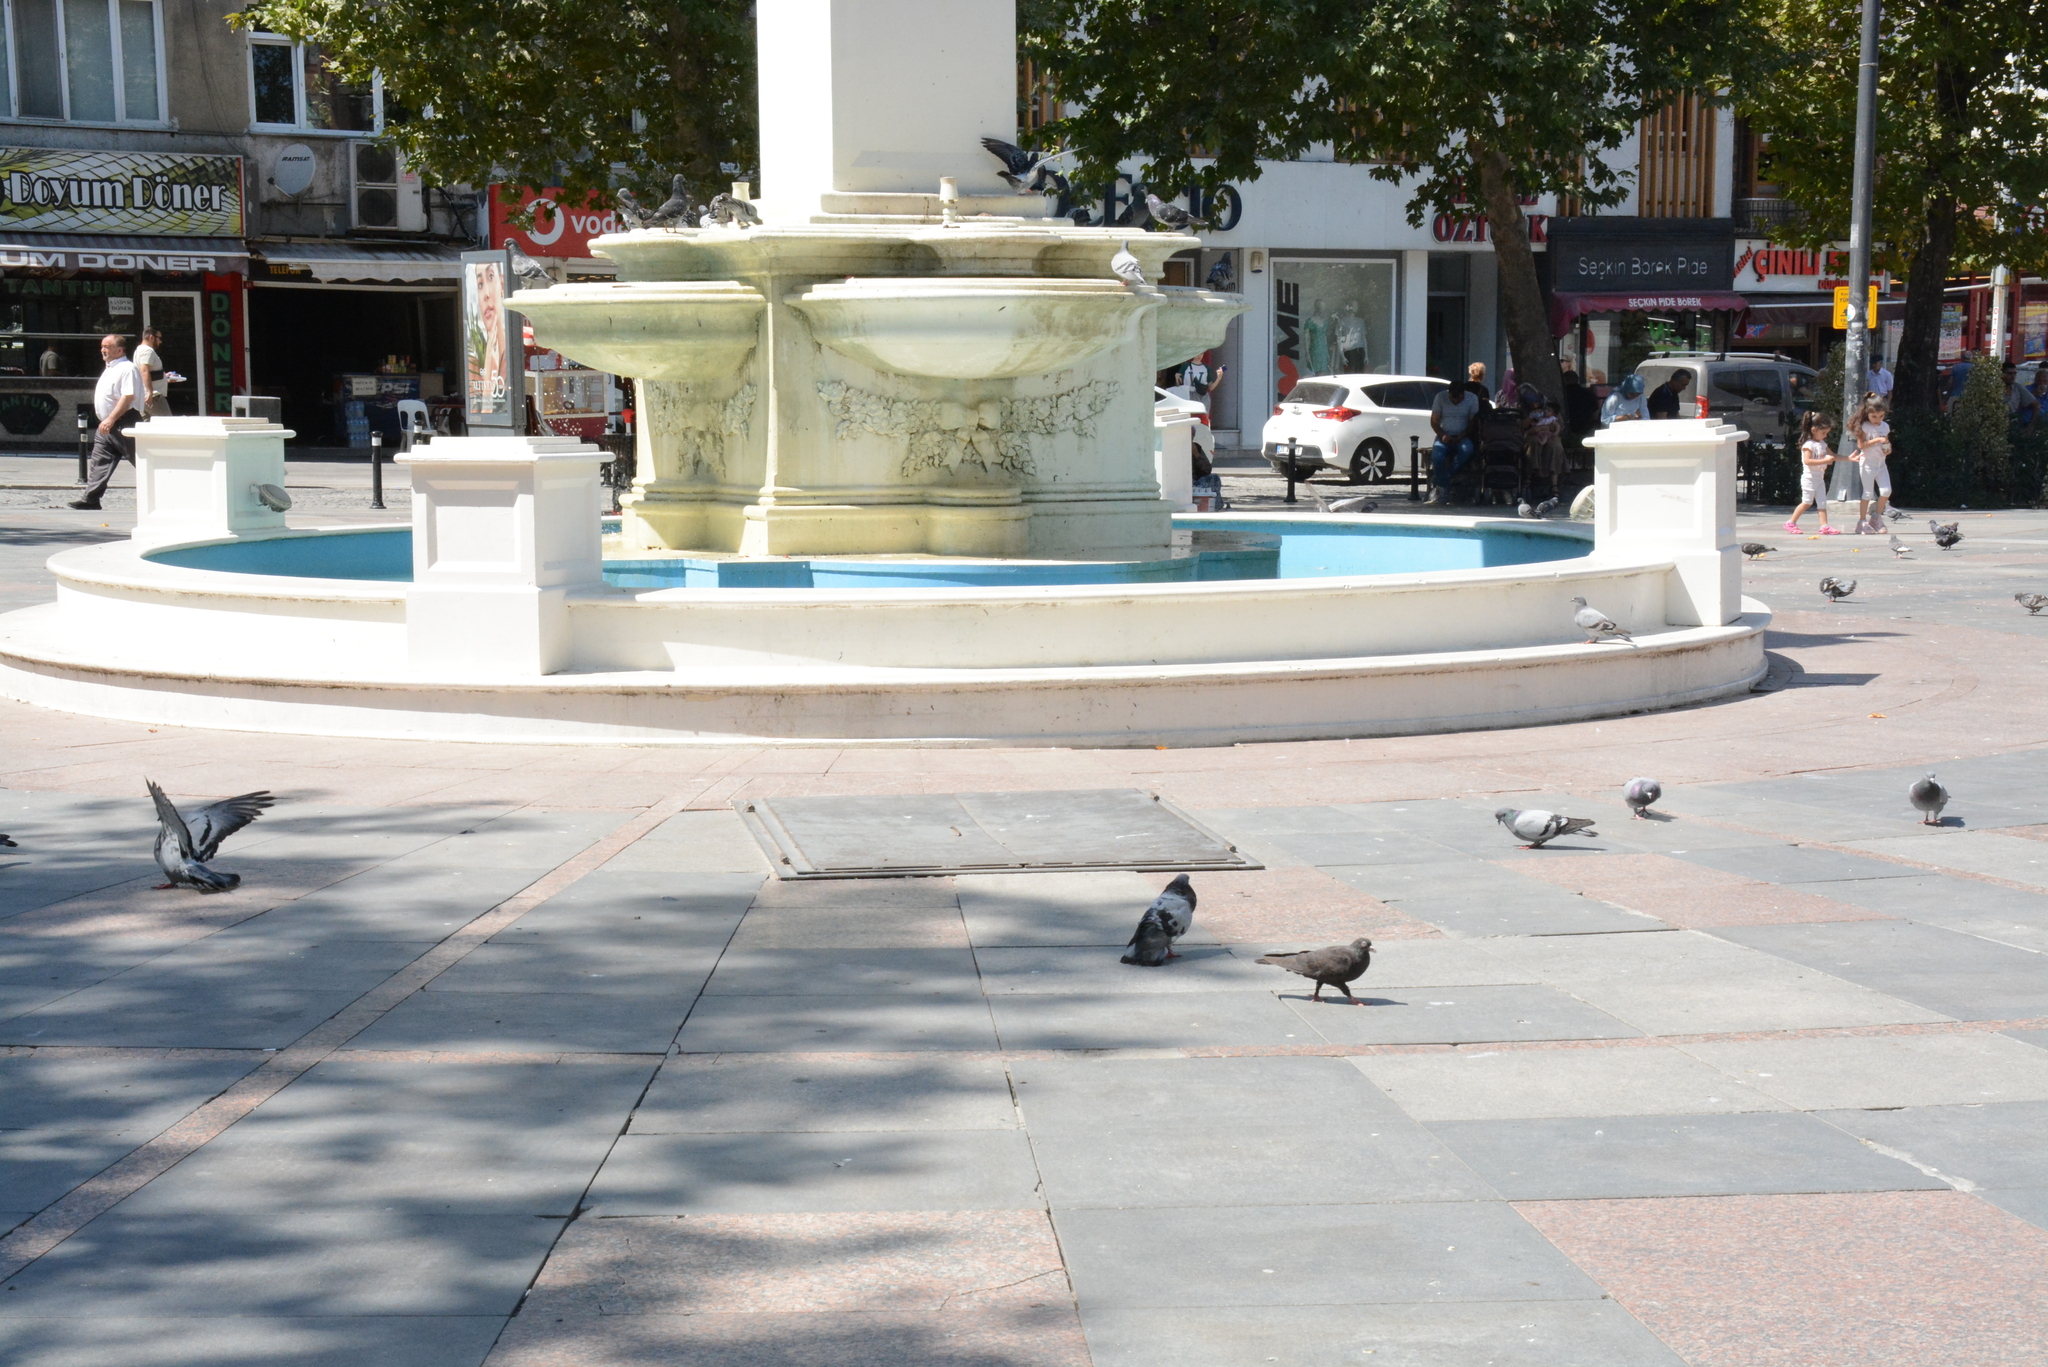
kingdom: Animalia
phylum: Chordata
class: Aves
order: Columbiformes
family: Columbidae
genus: Columba
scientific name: Columba livia
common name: Rock pigeon
